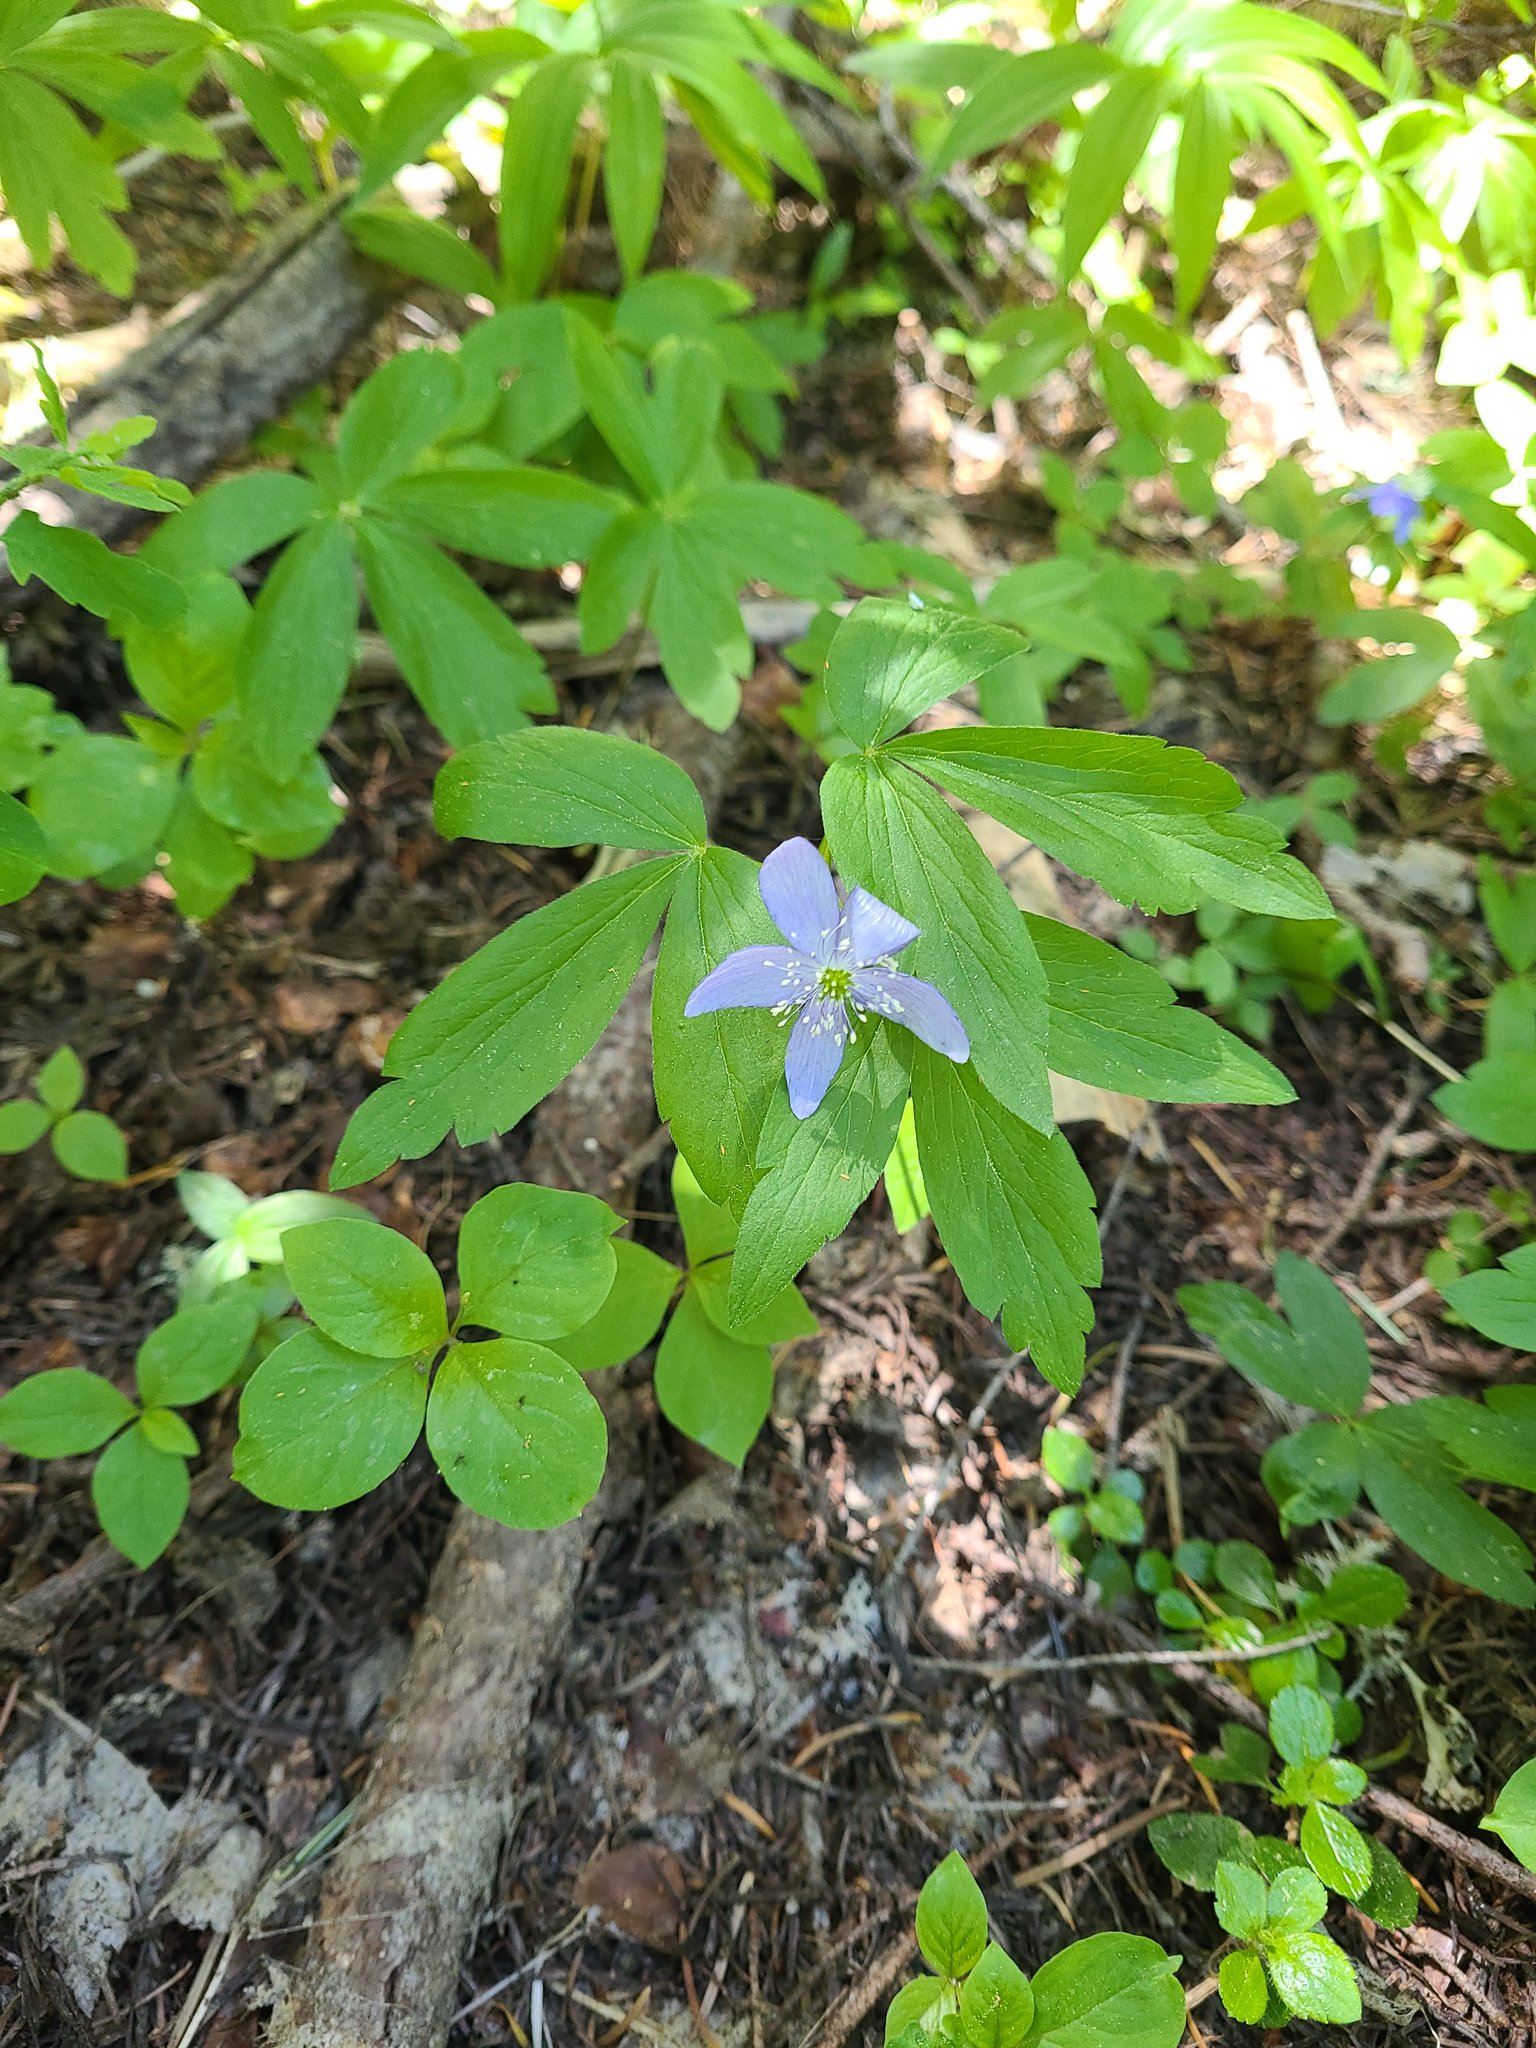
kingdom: Plantae
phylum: Tracheophyta
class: Magnoliopsida
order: Ranunculales
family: Ranunculaceae
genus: Anemone
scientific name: Anemone oregana
